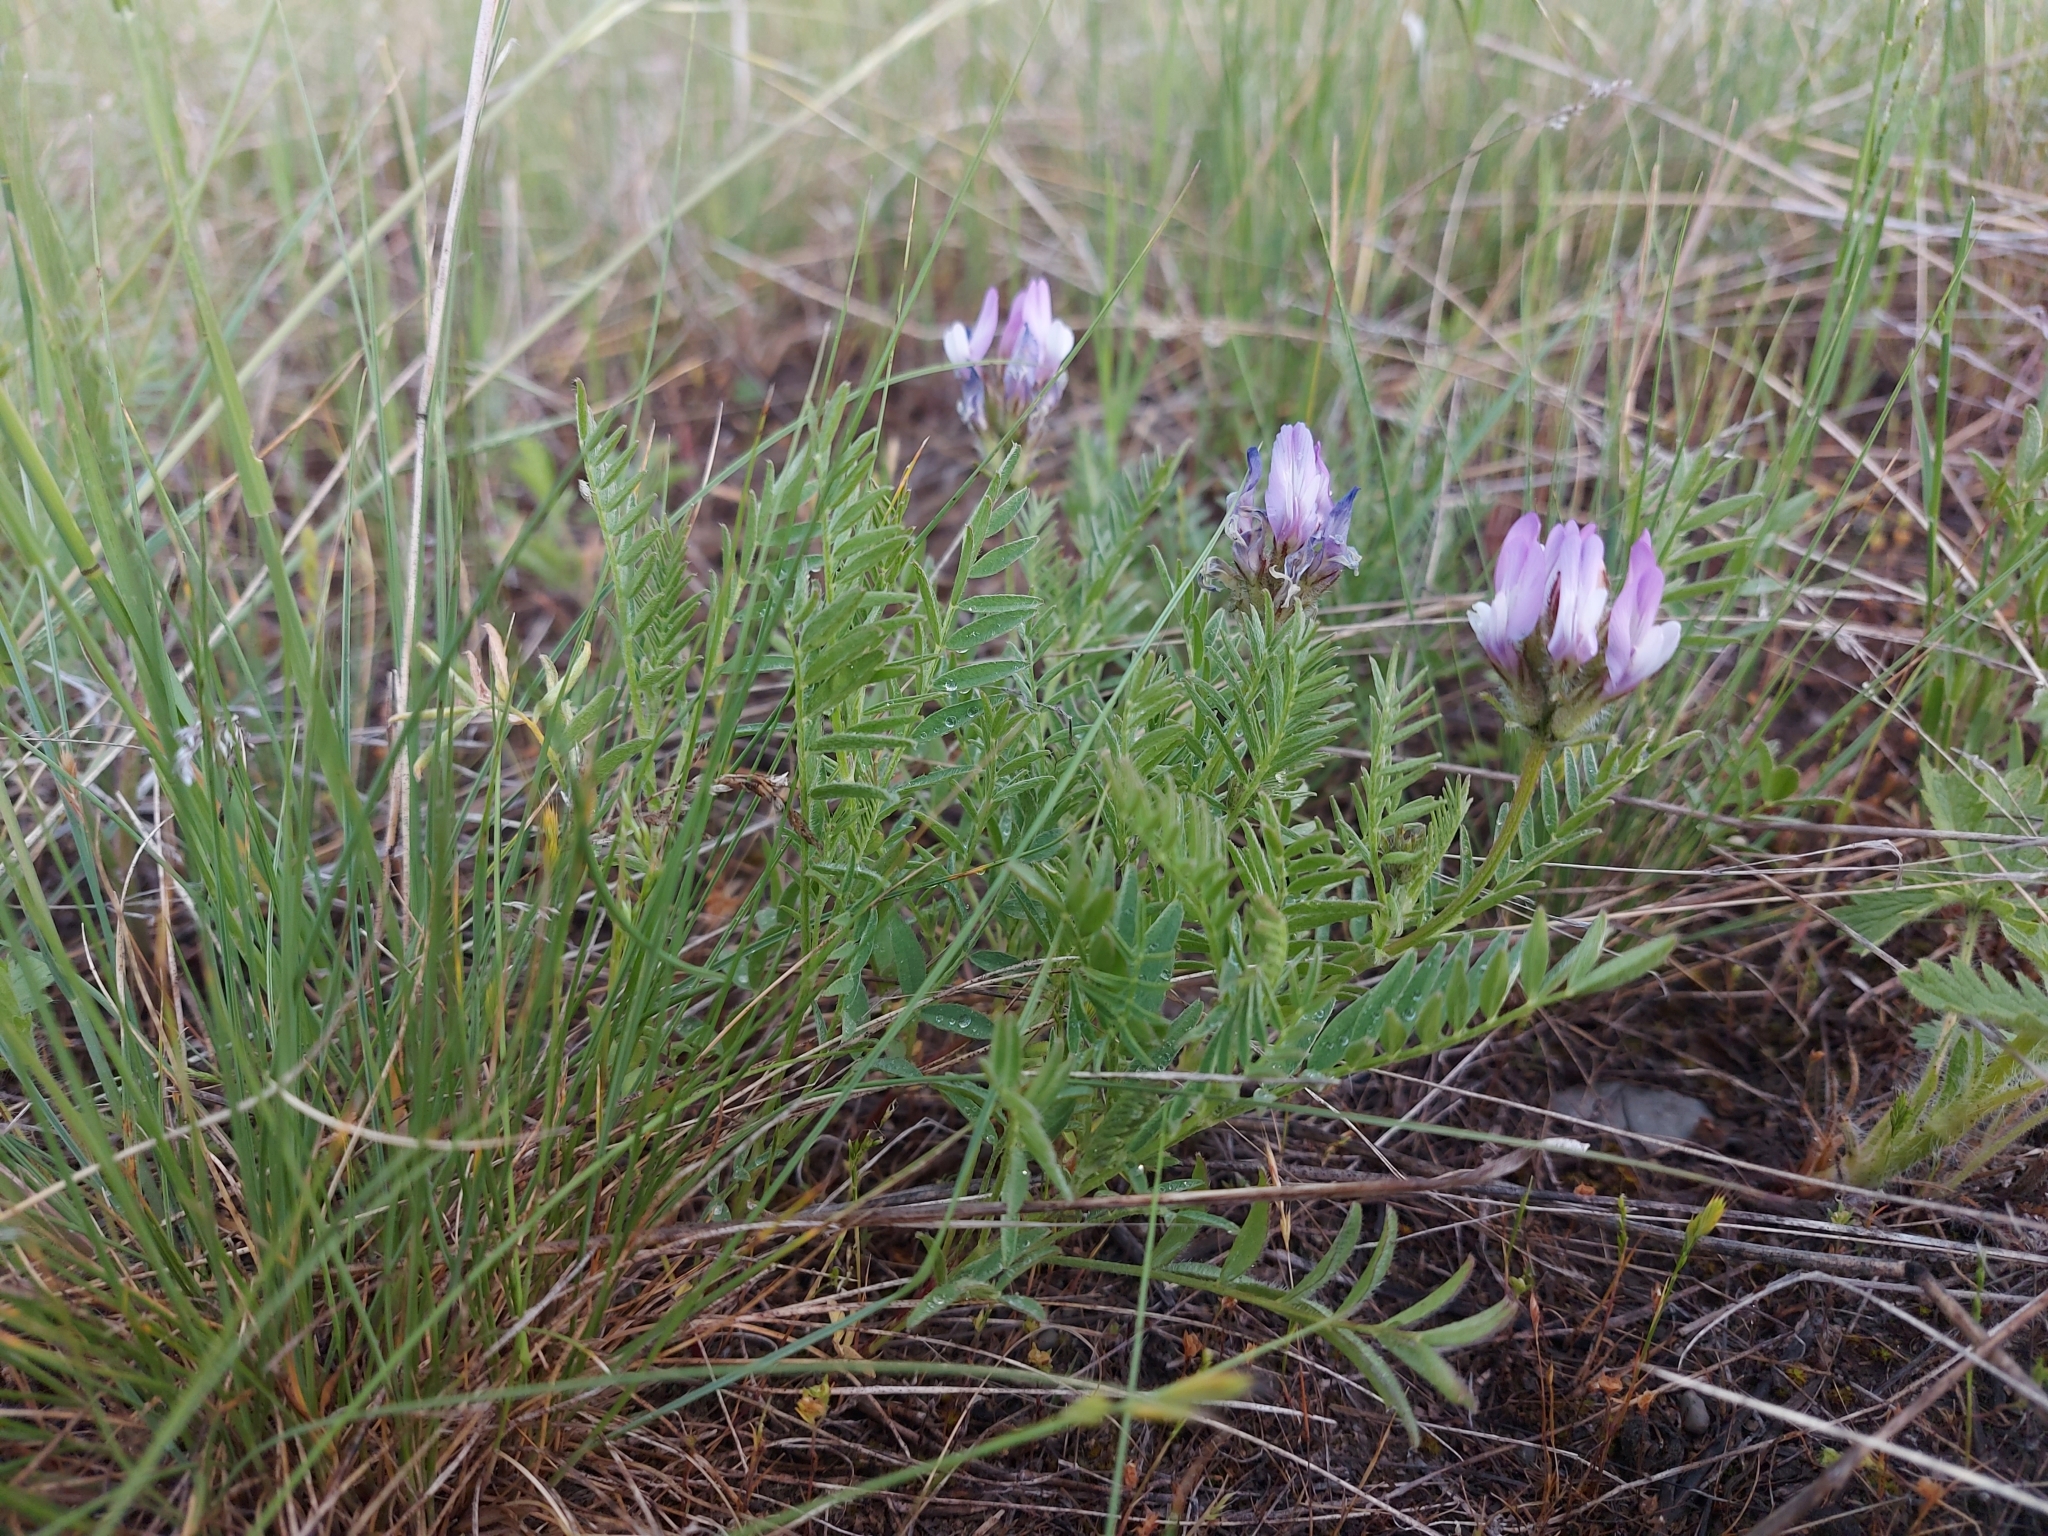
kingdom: Plantae
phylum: Tracheophyta
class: Magnoliopsida
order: Fabales
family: Fabaceae
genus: Astragalus
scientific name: Astragalus agrestis
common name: Field milk-vetch
